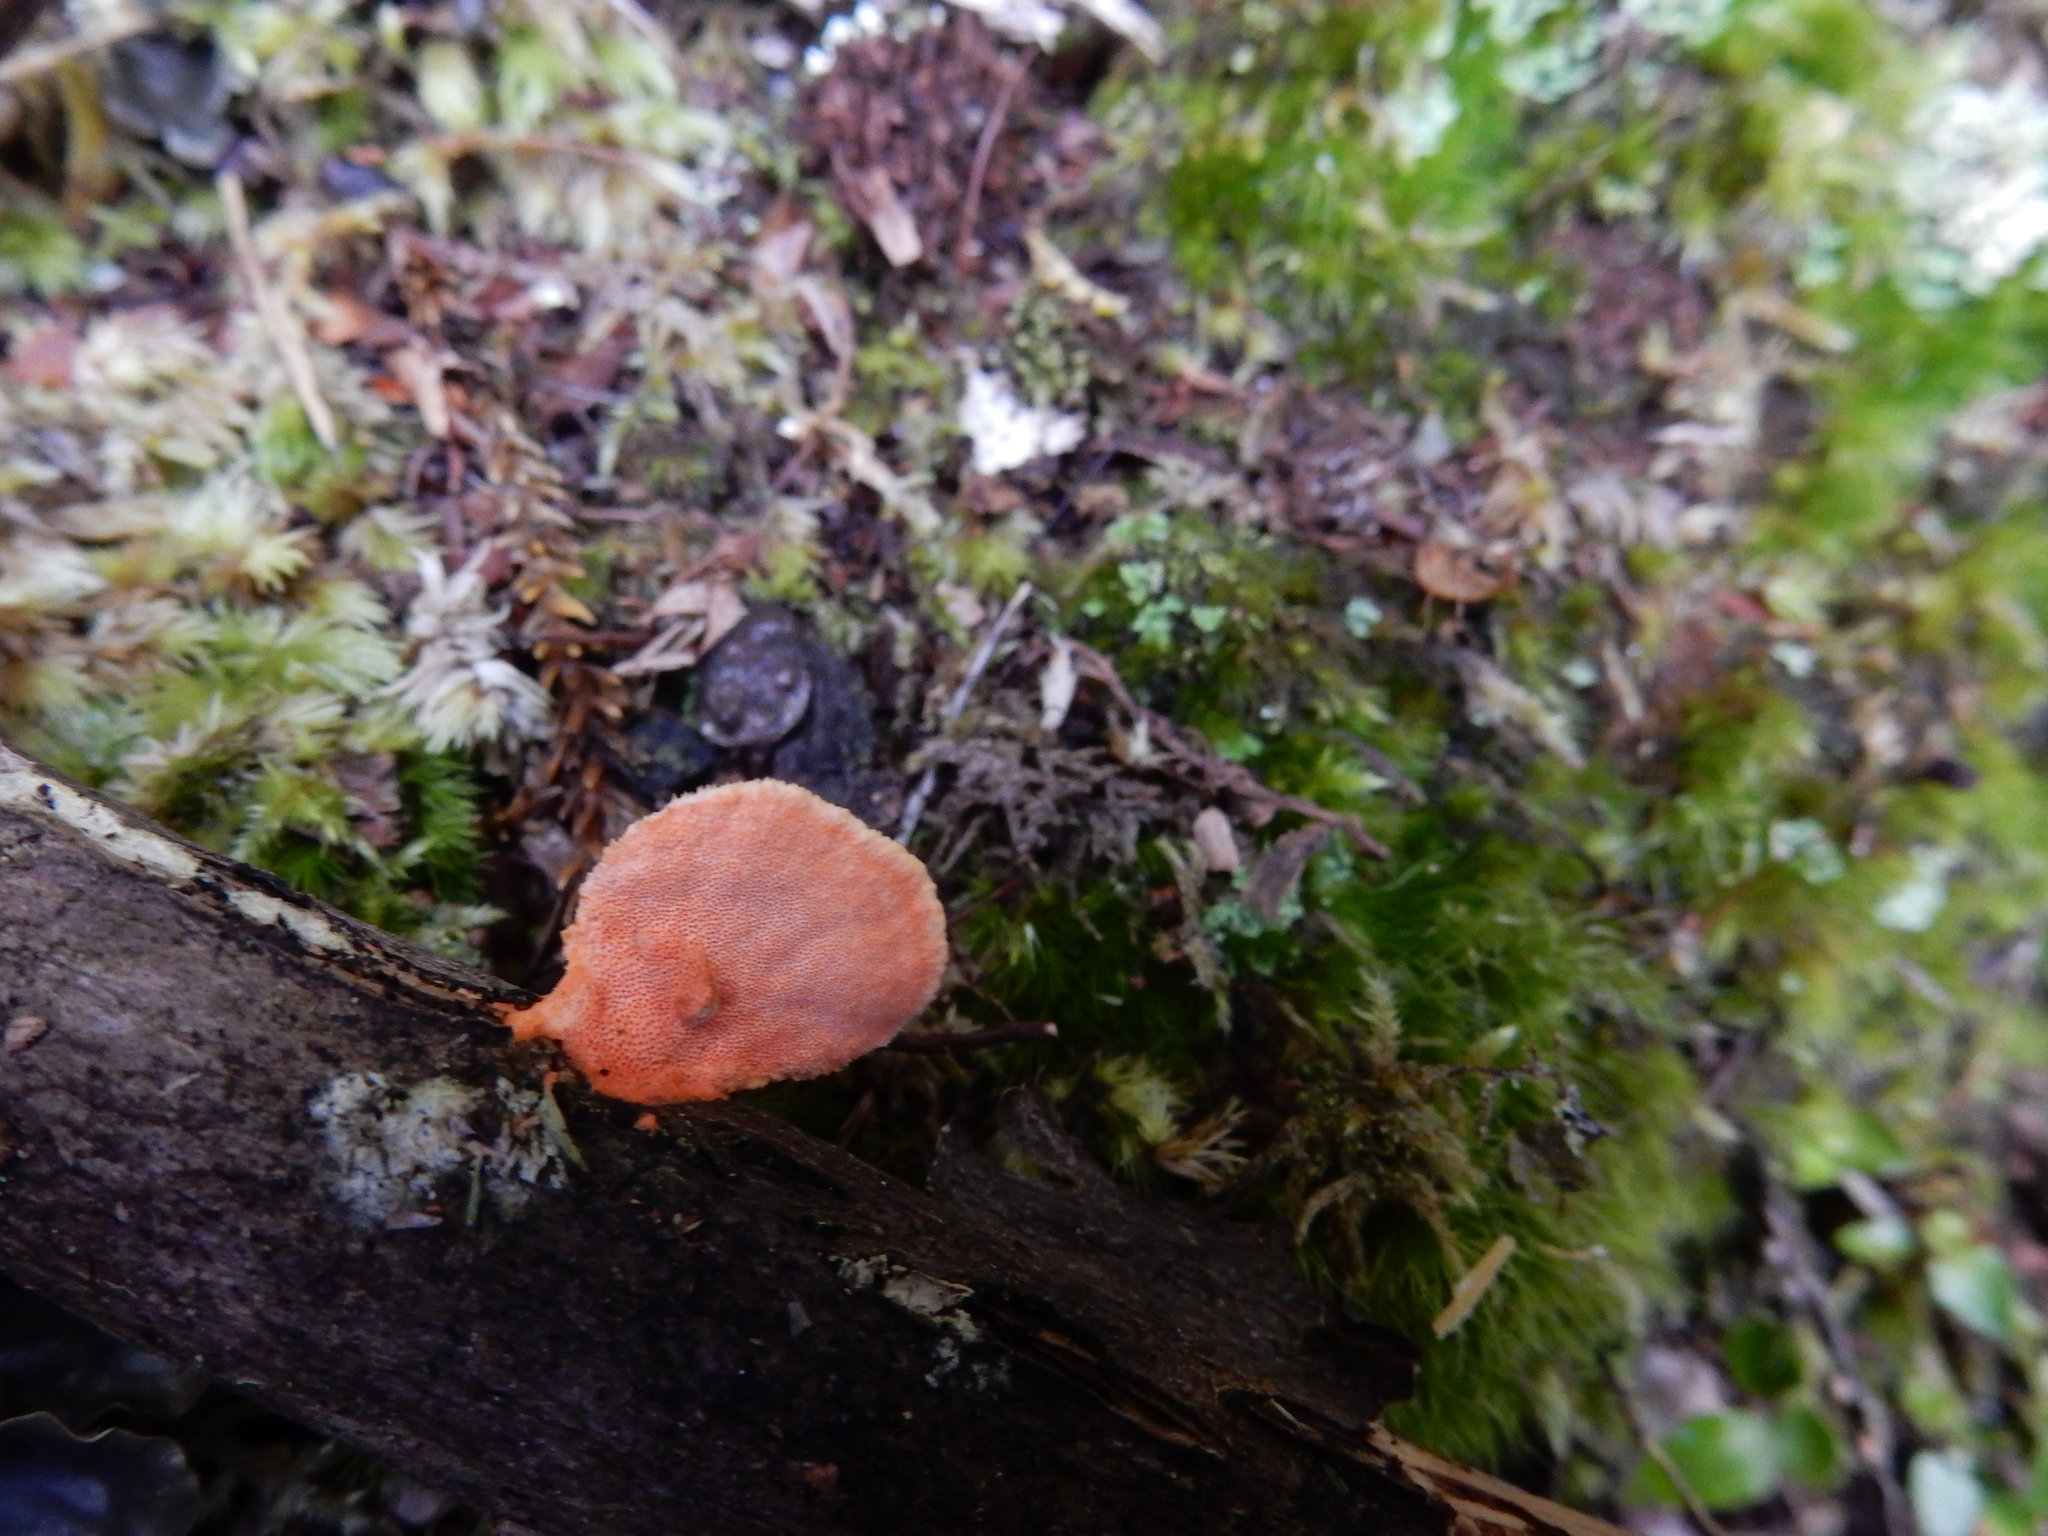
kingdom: Fungi
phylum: Basidiomycota
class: Agaricomycetes
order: Polyporales
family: Polyporaceae
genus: Trametes
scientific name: Trametes coccinea
